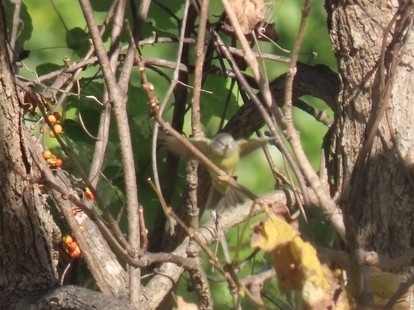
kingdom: Animalia
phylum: Chordata
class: Aves
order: Passeriformes
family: Parulidae
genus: Leiothlypis
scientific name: Leiothlypis celata
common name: Orange-crowned warbler
